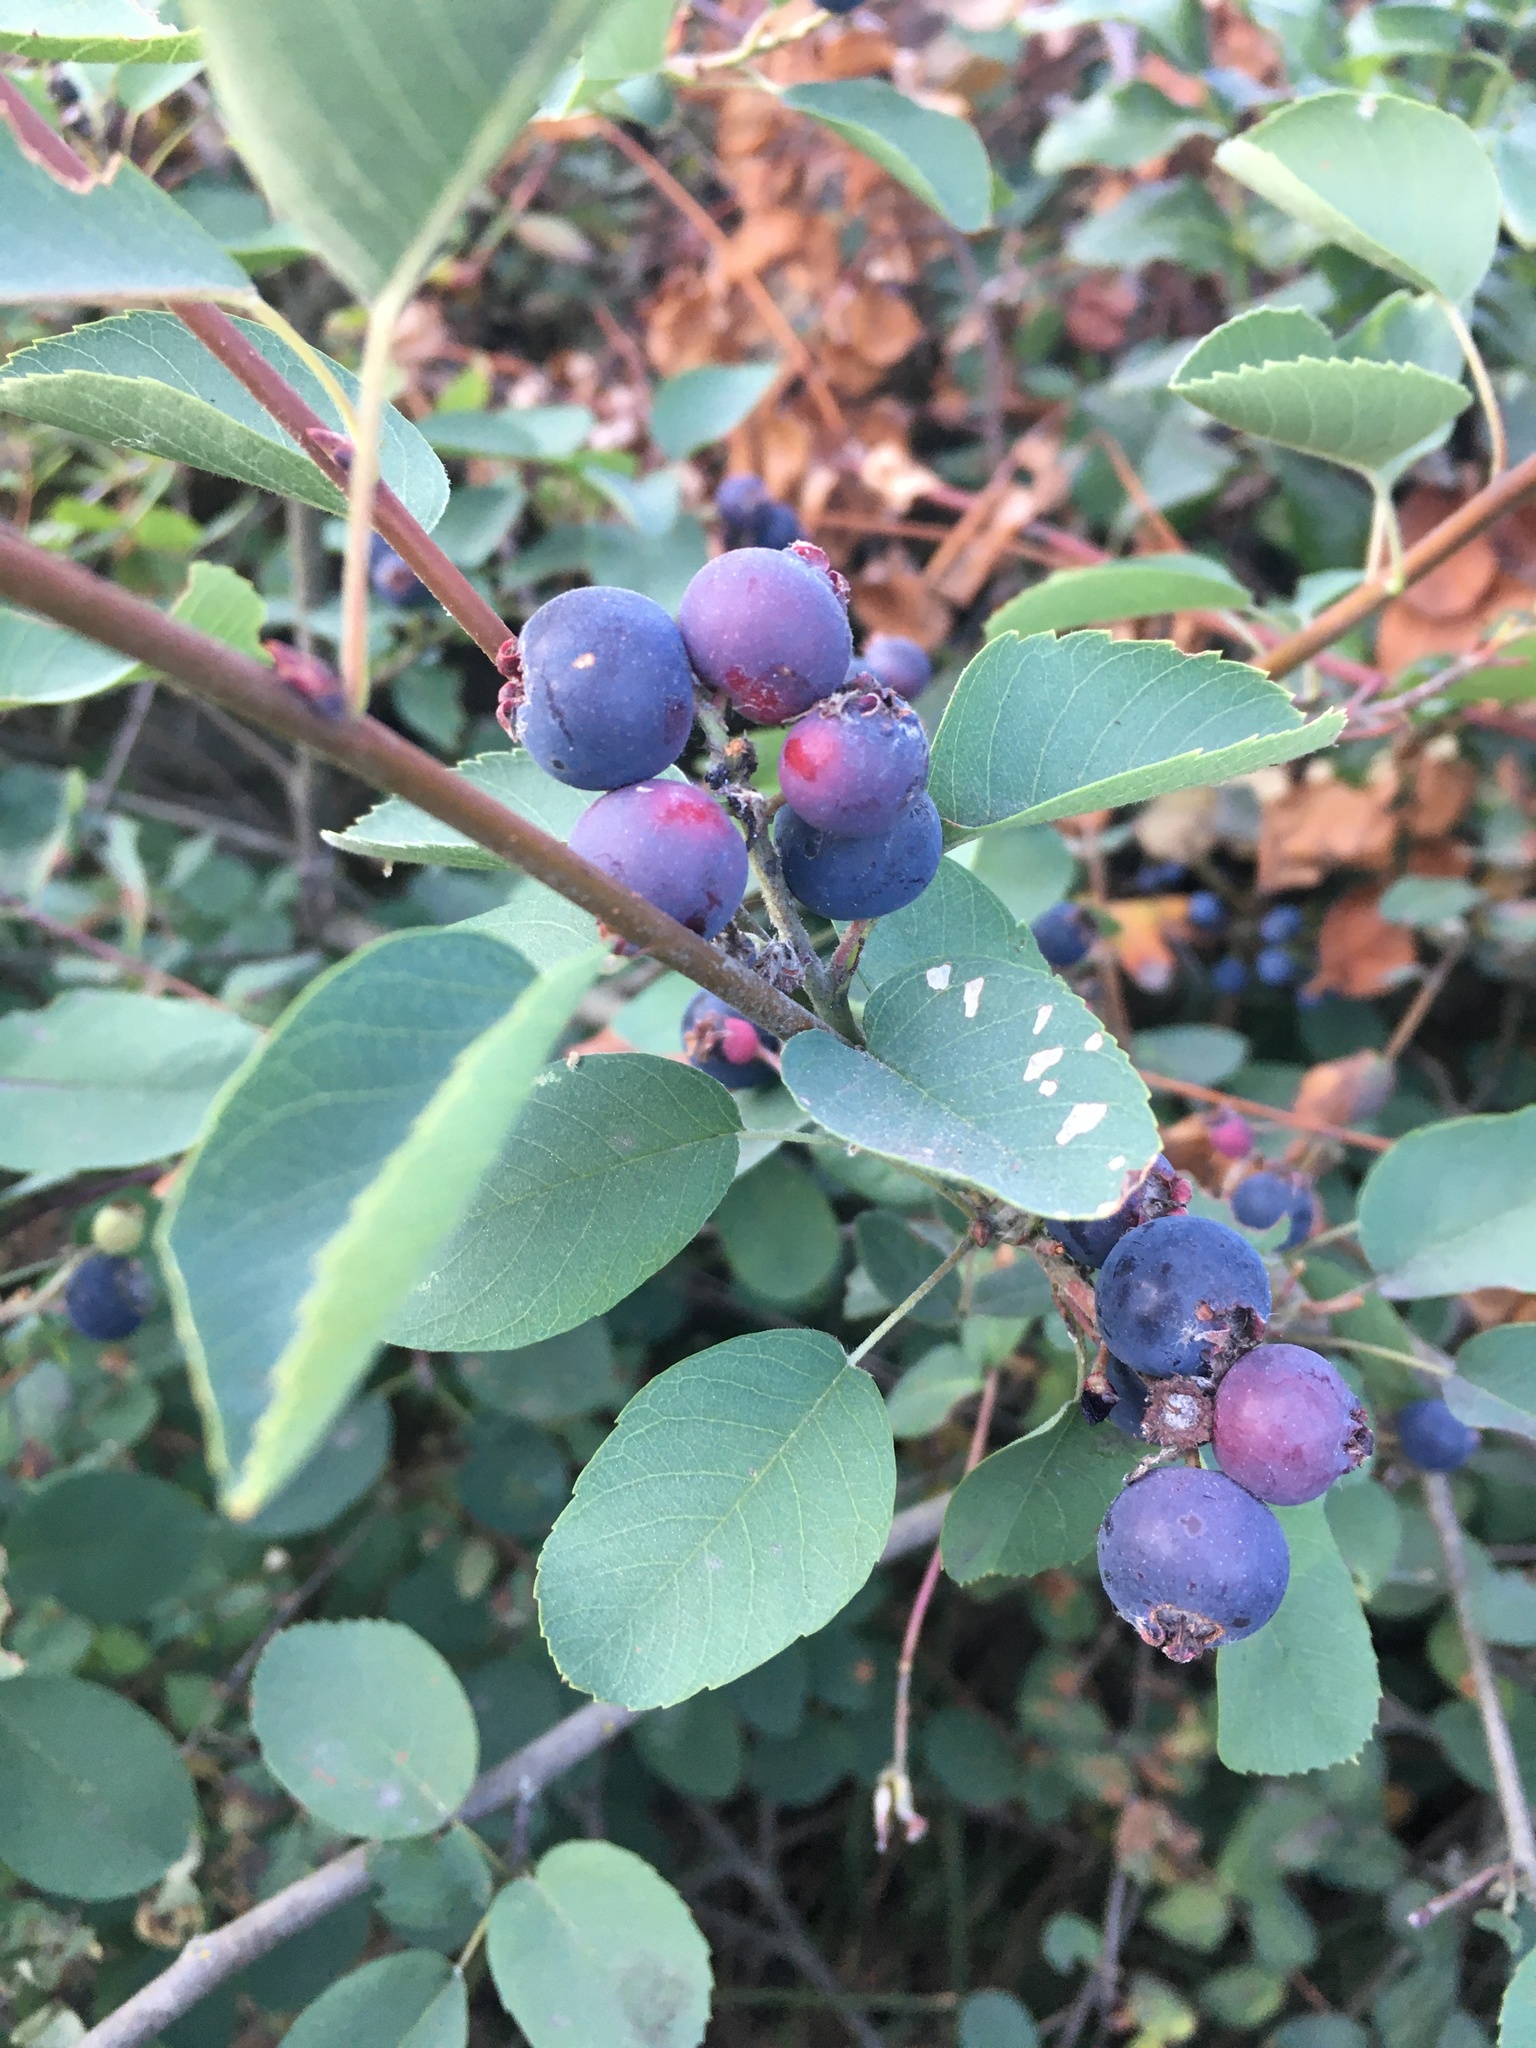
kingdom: Plantae
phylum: Tracheophyta
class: Magnoliopsida
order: Rosales
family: Rosaceae
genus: Amelanchier
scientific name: Amelanchier alnifolia
